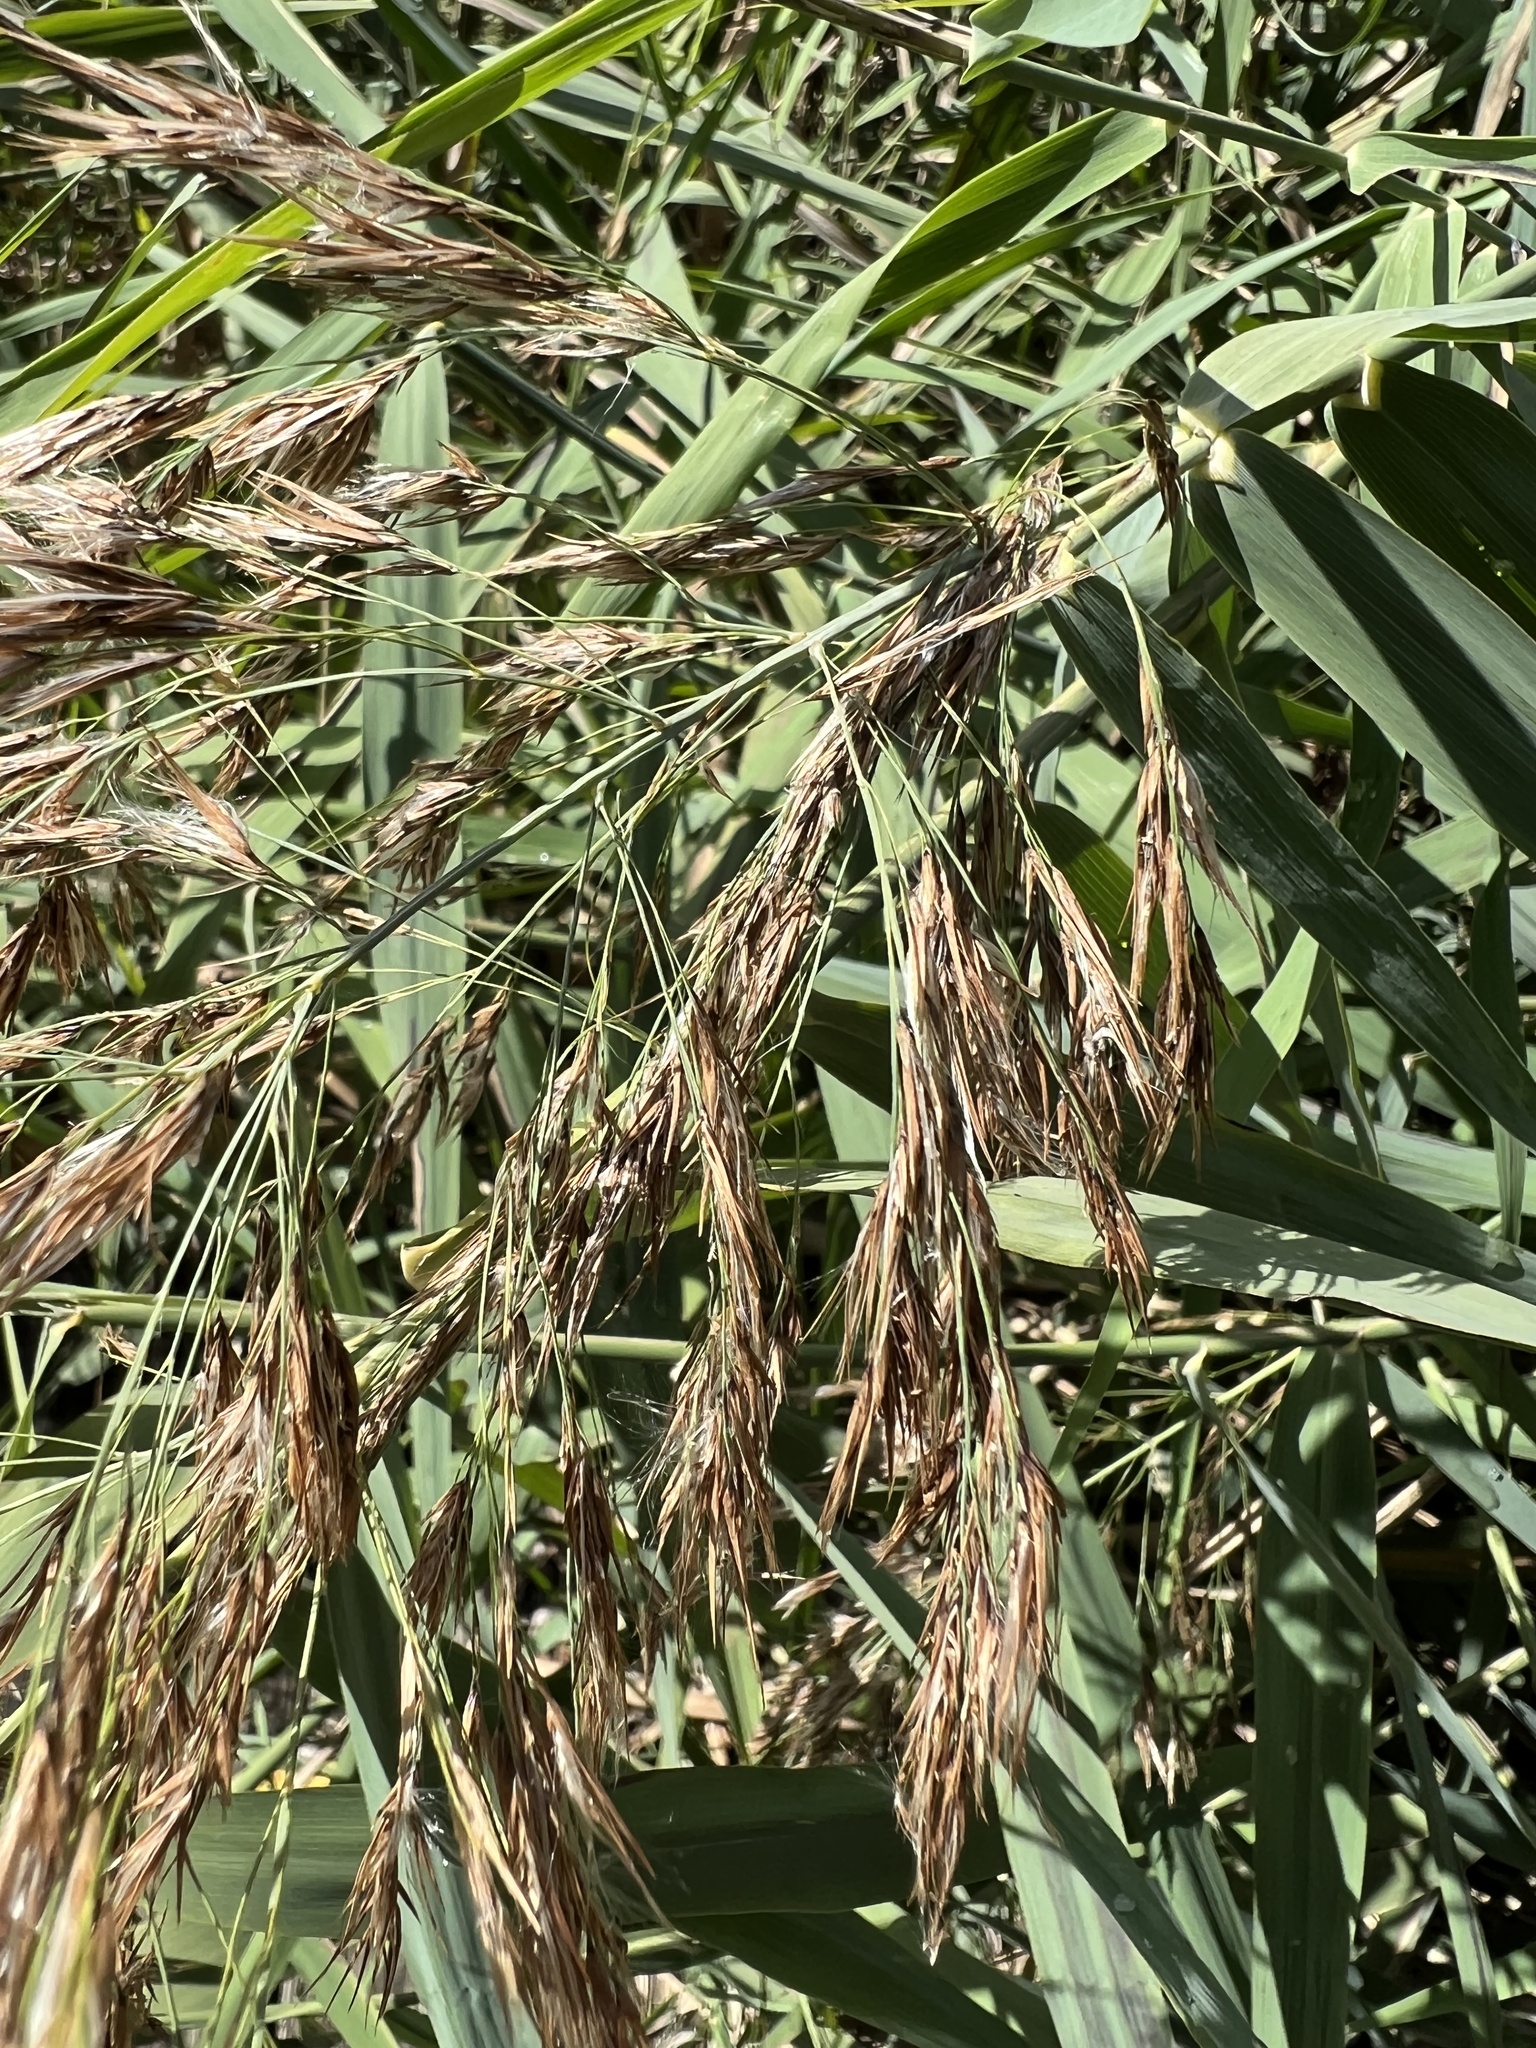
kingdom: Plantae
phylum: Tracheophyta
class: Liliopsida
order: Poales
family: Poaceae
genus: Phragmites
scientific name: Phragmites australis
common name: Common reed
